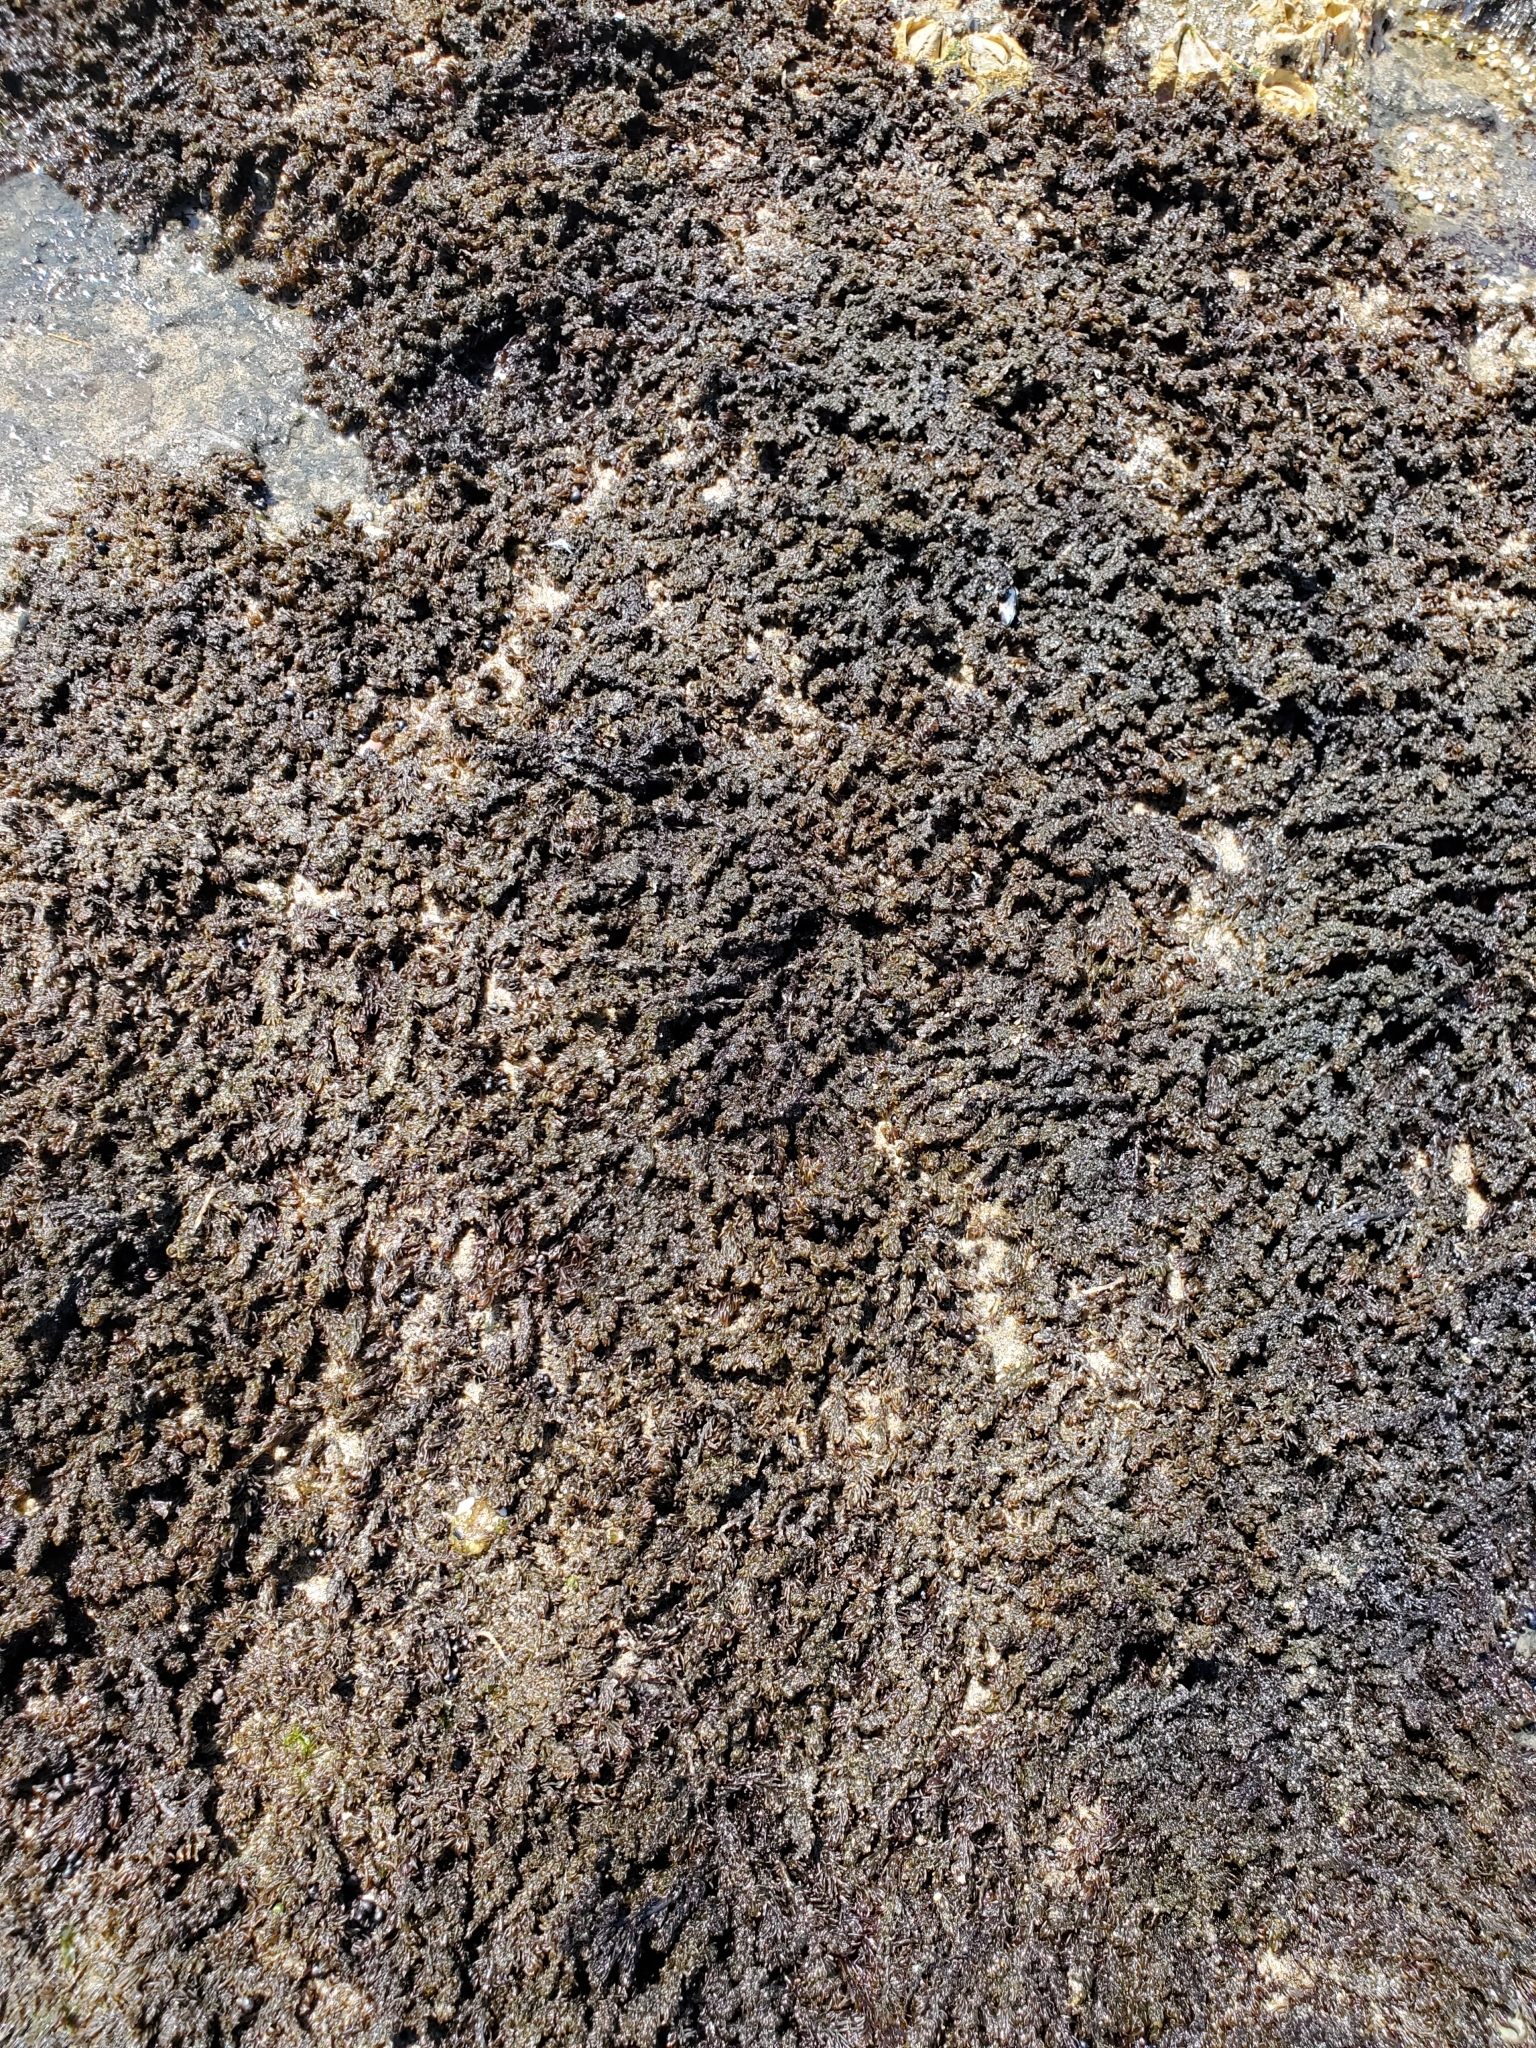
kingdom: Plantae
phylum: Rhodophyta
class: Florideophyceae
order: Ceramiales
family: Rhodomelaceae
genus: Neorhodomela
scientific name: Neorhodomela larix
